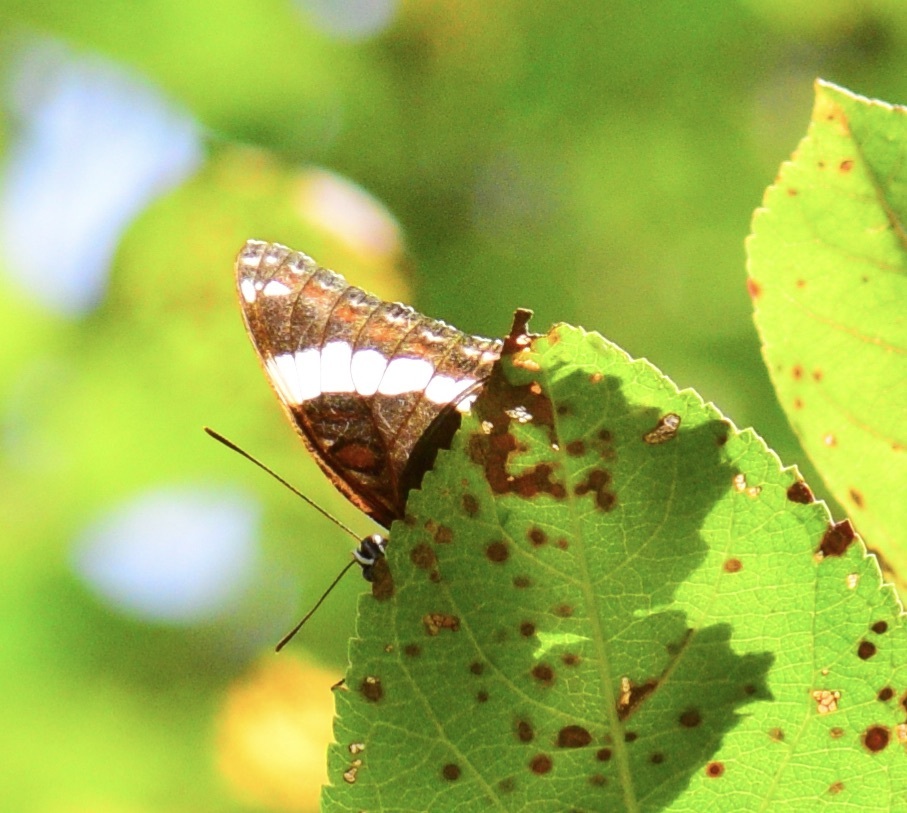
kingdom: Animalia
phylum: Arthropoda
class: Insecta
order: Lepidoptera
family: Nymphalidae
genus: Limenitis
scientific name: Limenitis arthemis
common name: Red-spotted admiral
